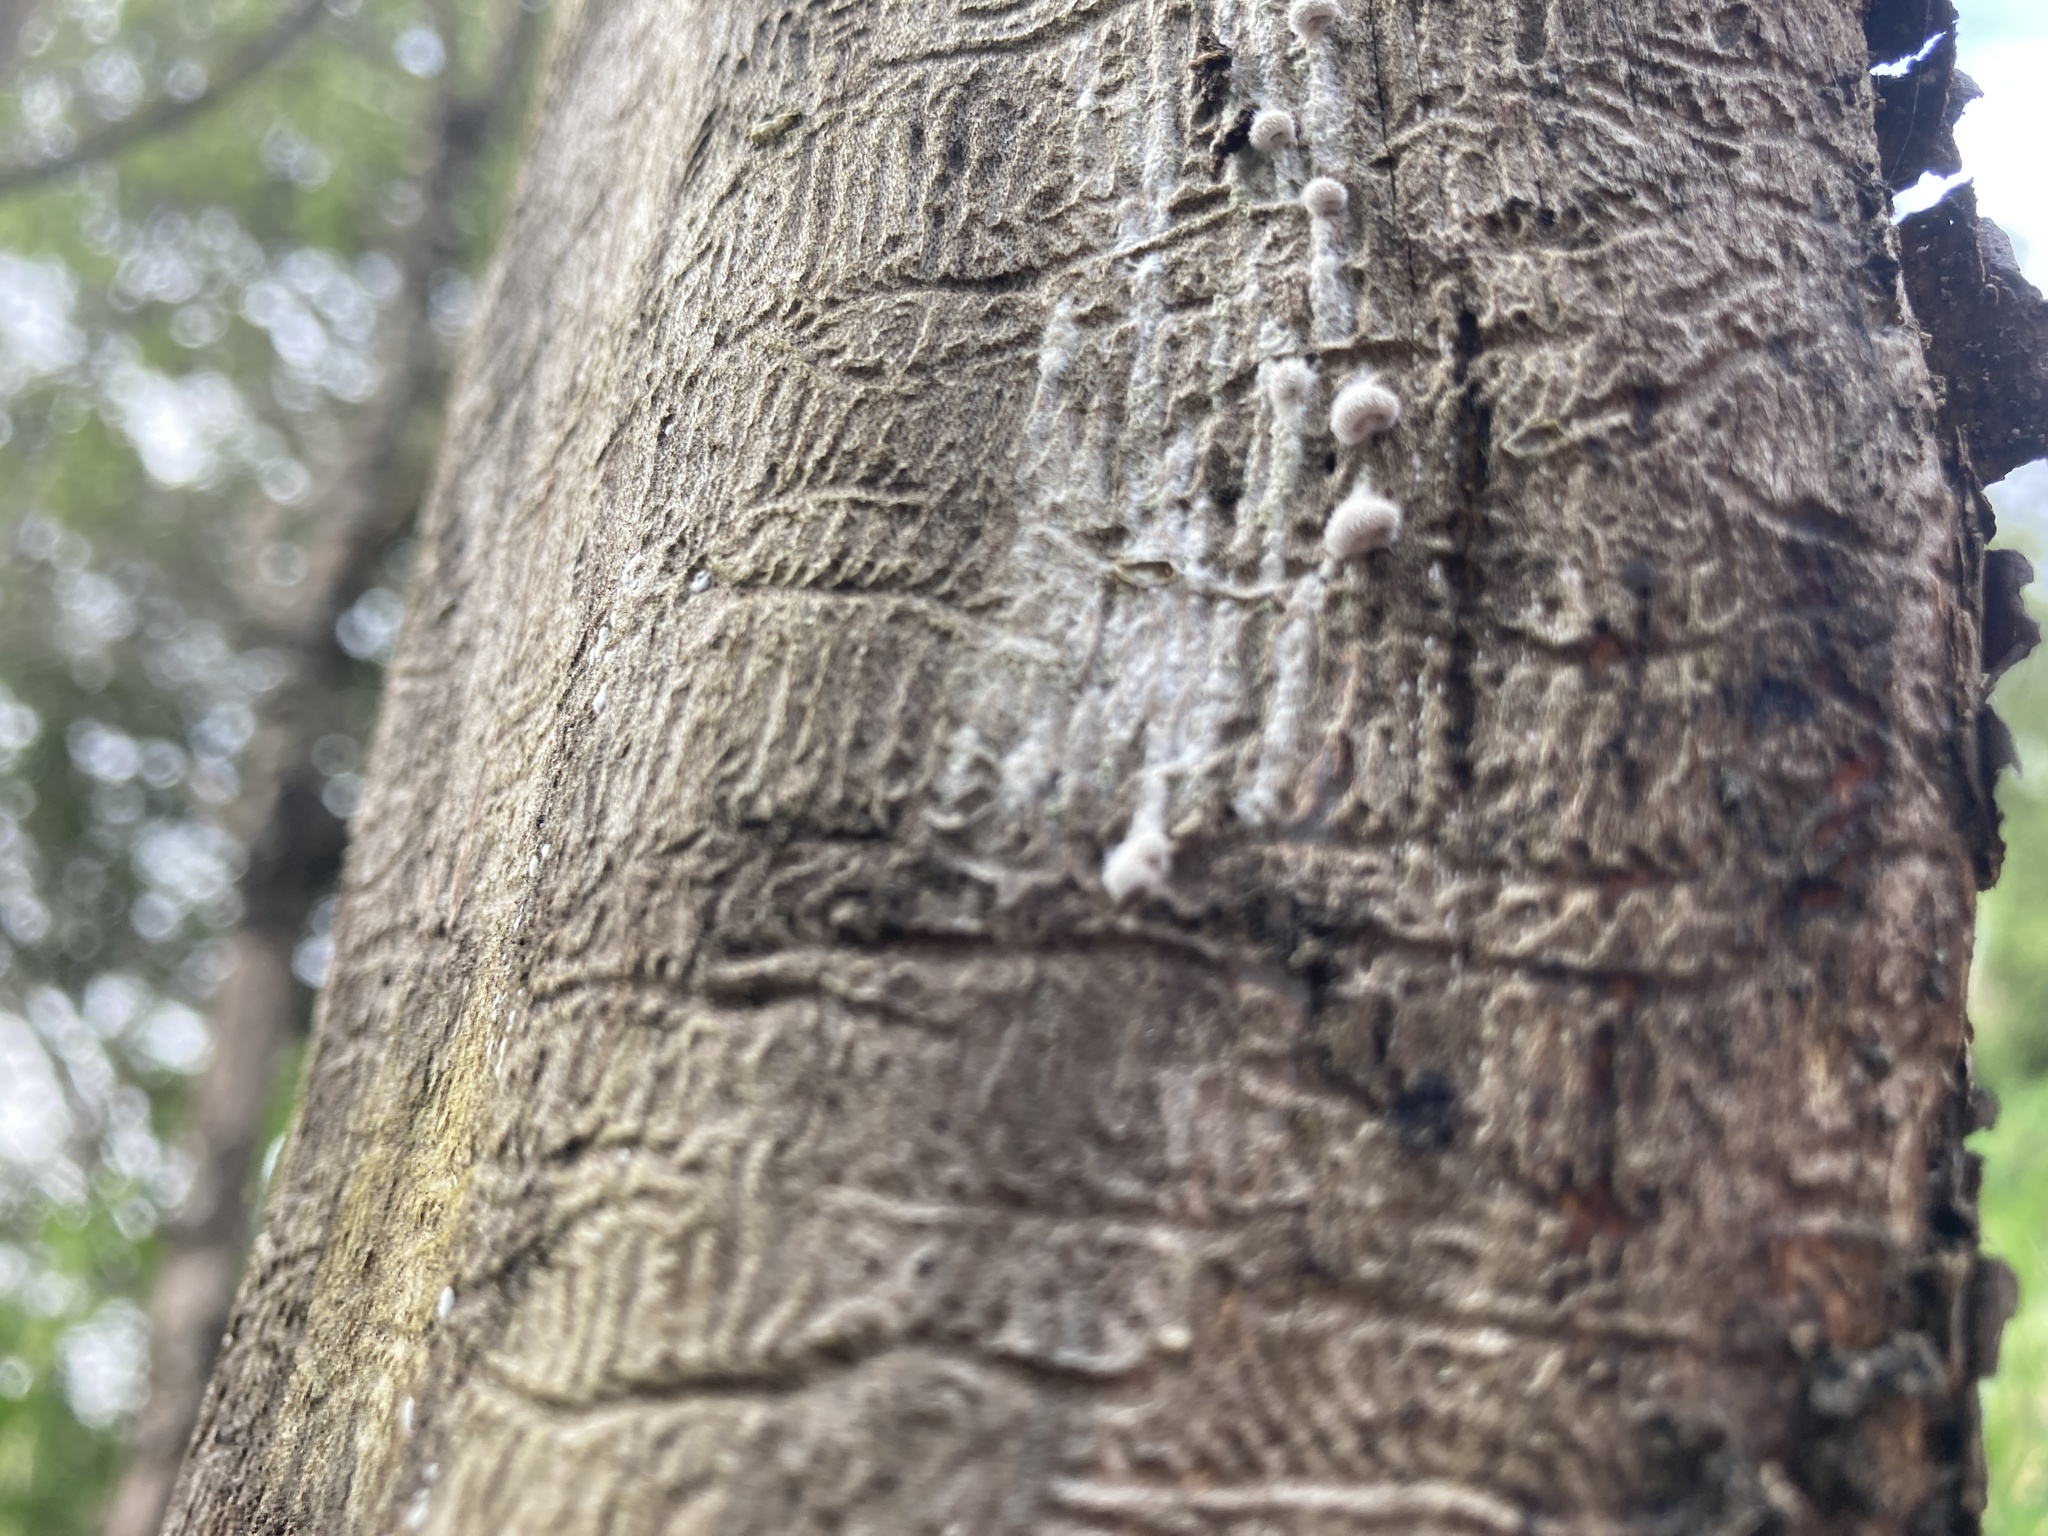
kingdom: Fungi
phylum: Basidiomycota
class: Agaricomycetes
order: Agaricales
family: Schizophyllaceae
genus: Schizophyllum
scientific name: Schizophyllum commune
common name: Common porecrust
